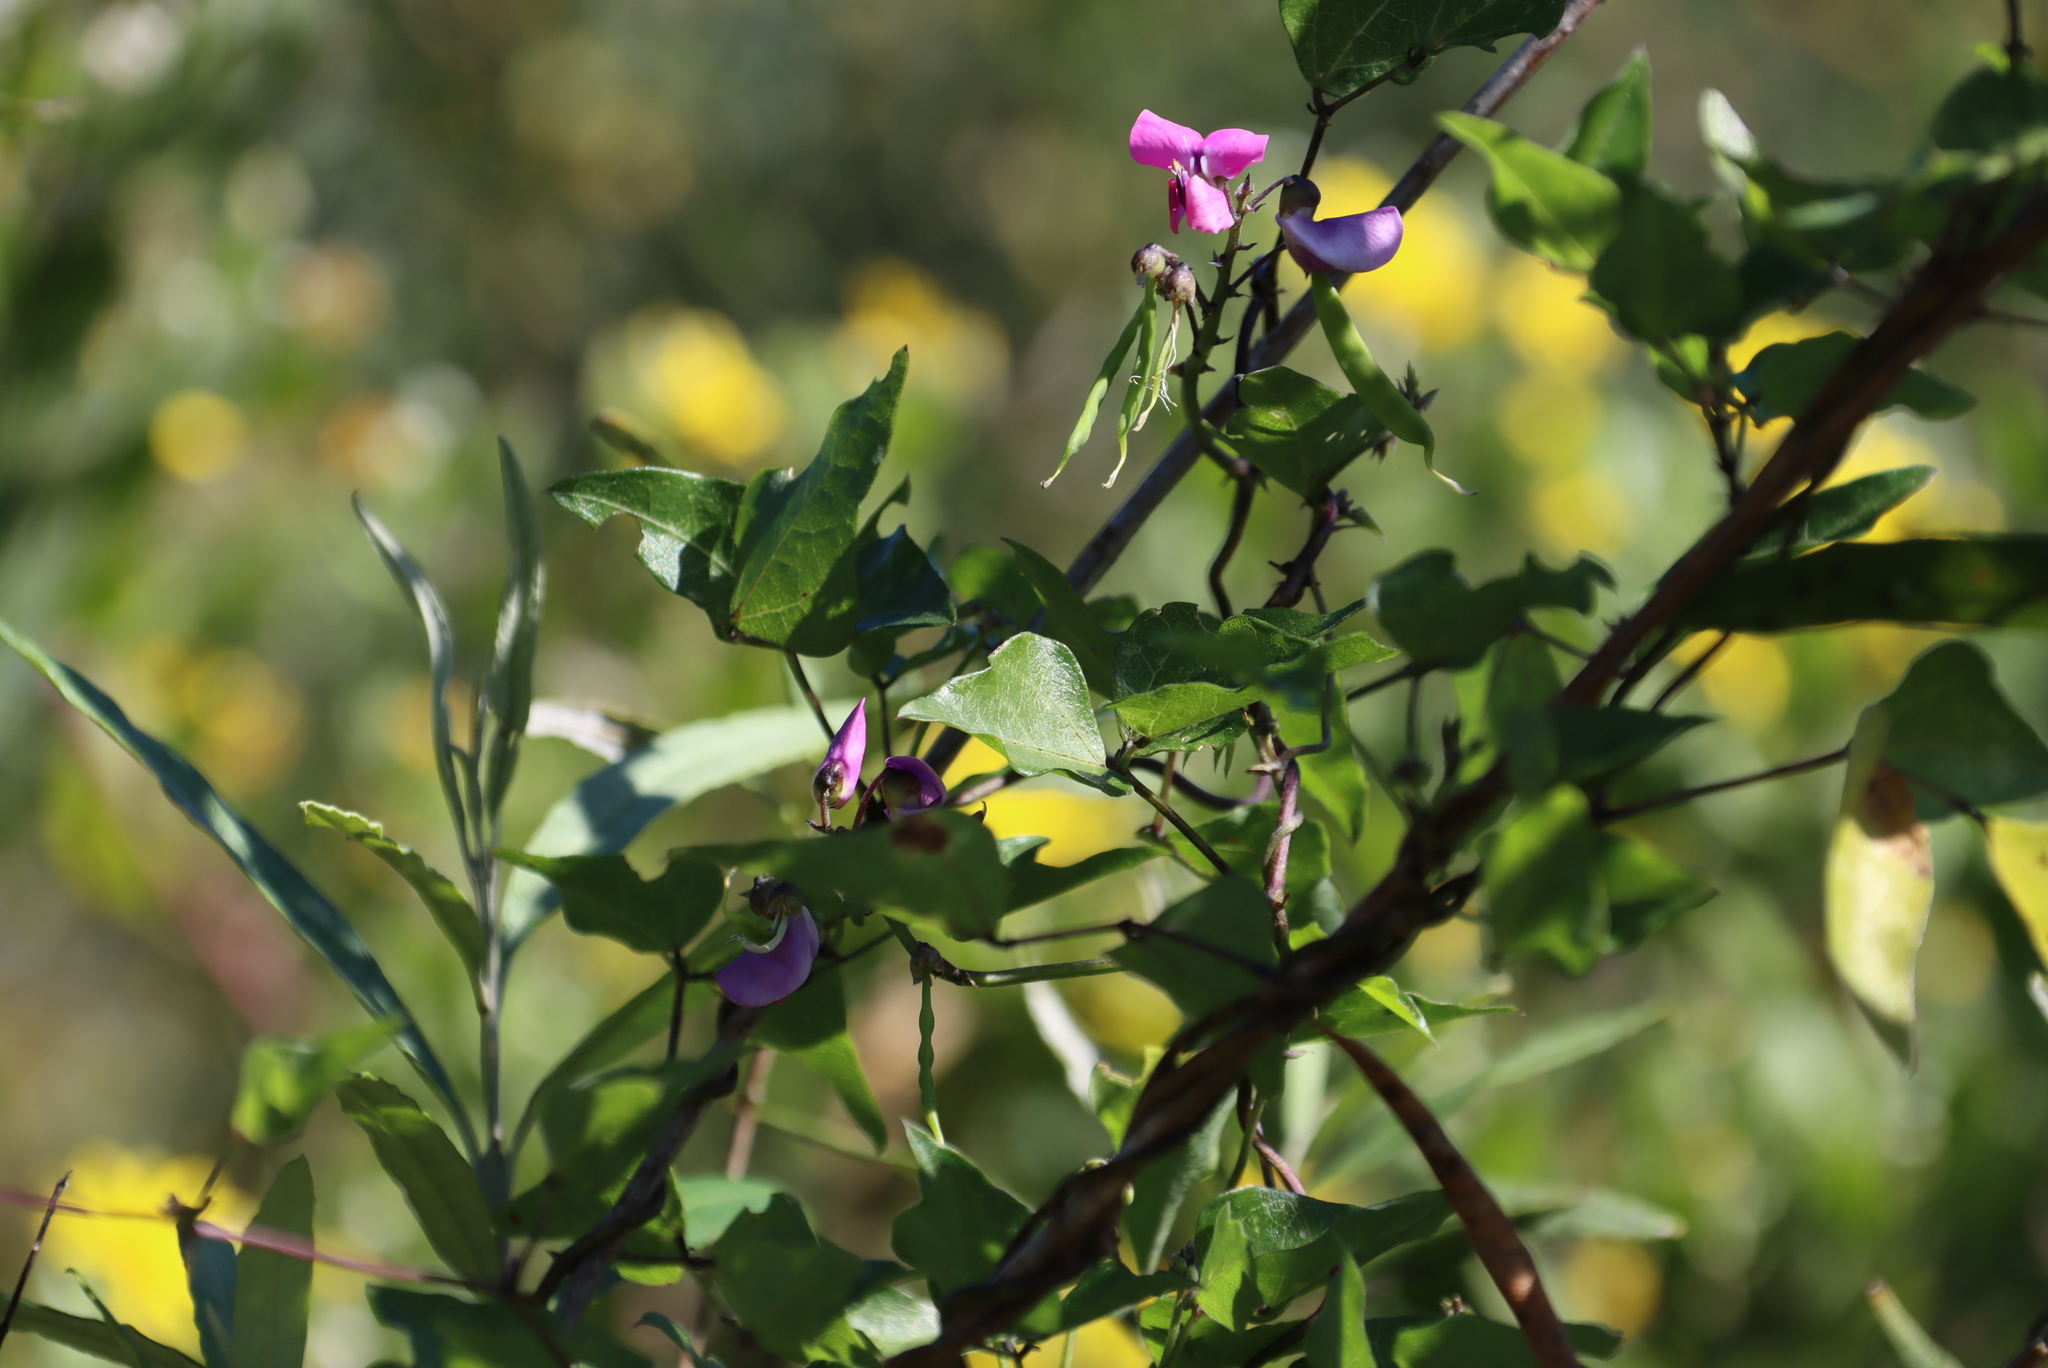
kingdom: Plantae
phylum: Tracheophyta
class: Magnoliopsida
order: Fabales
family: Fabaceae
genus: Dipogon
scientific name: Dipogon lignosus
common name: Okie bean
